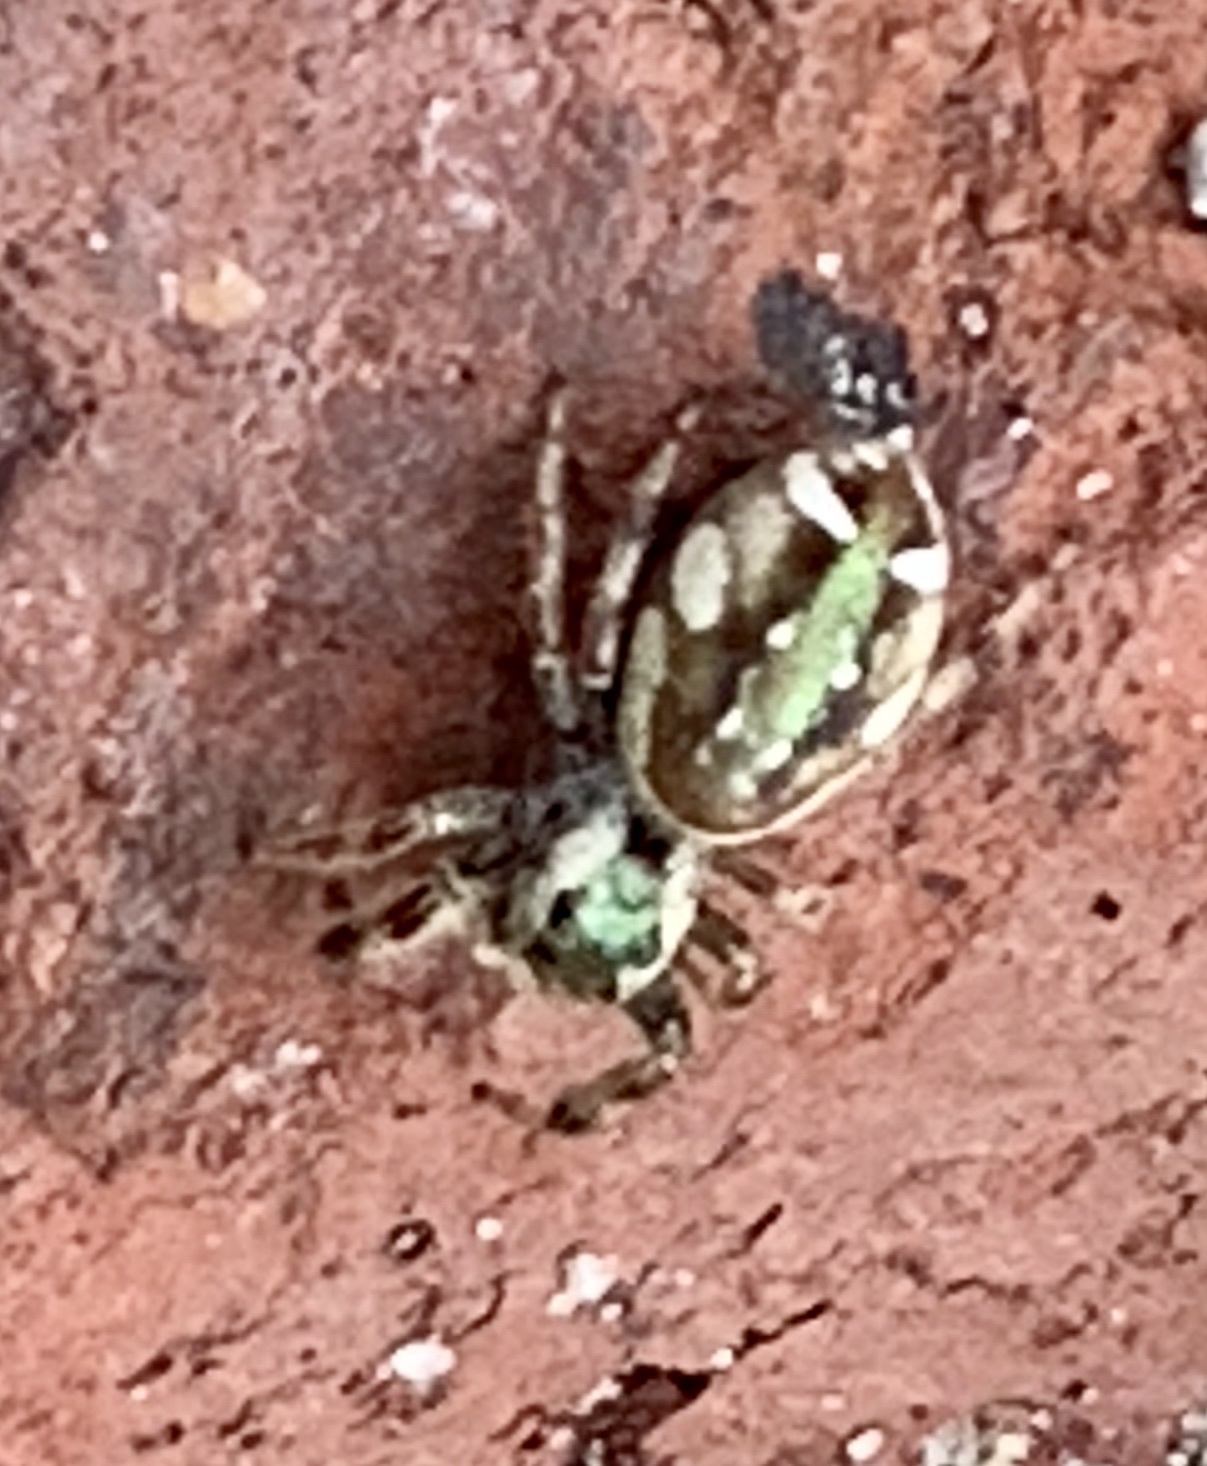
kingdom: Animalia
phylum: Arthropoda
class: Arachnida
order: Araneae
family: Salticidae
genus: Paraphidippus
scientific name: Paraphidippus aurantius
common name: Jumping spiders
